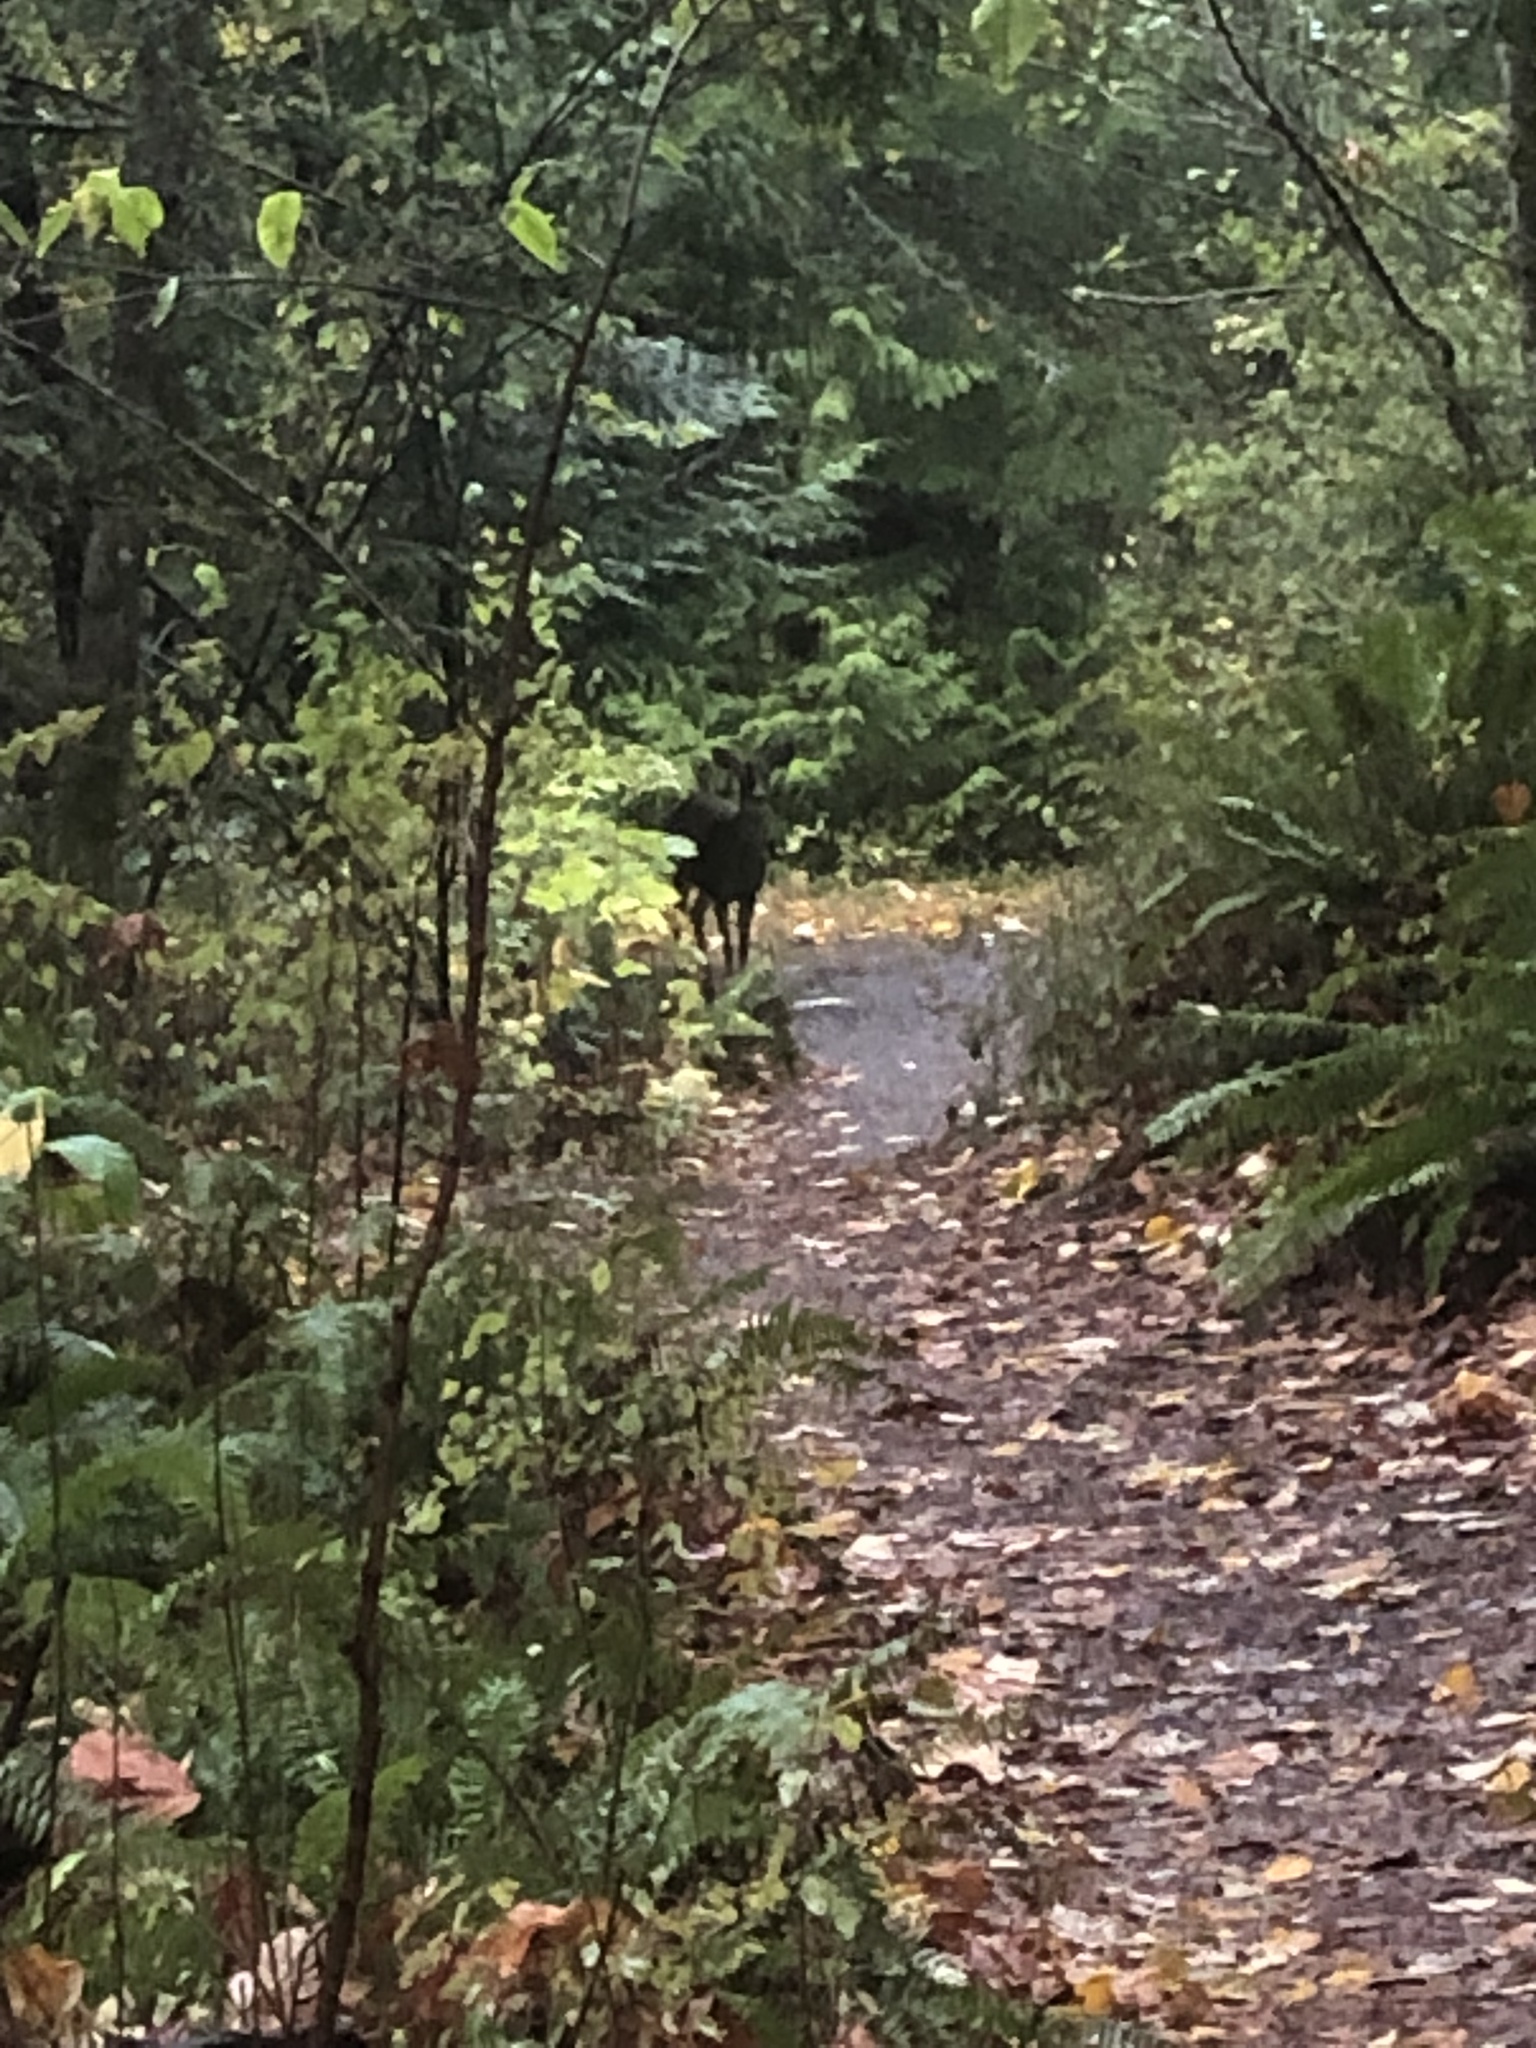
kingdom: Animalia
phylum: Chordata
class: Mammalia
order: Artiodactyla
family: Cervidae
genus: Odocoileus
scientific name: Odocoileus hemionus
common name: Mule deer
